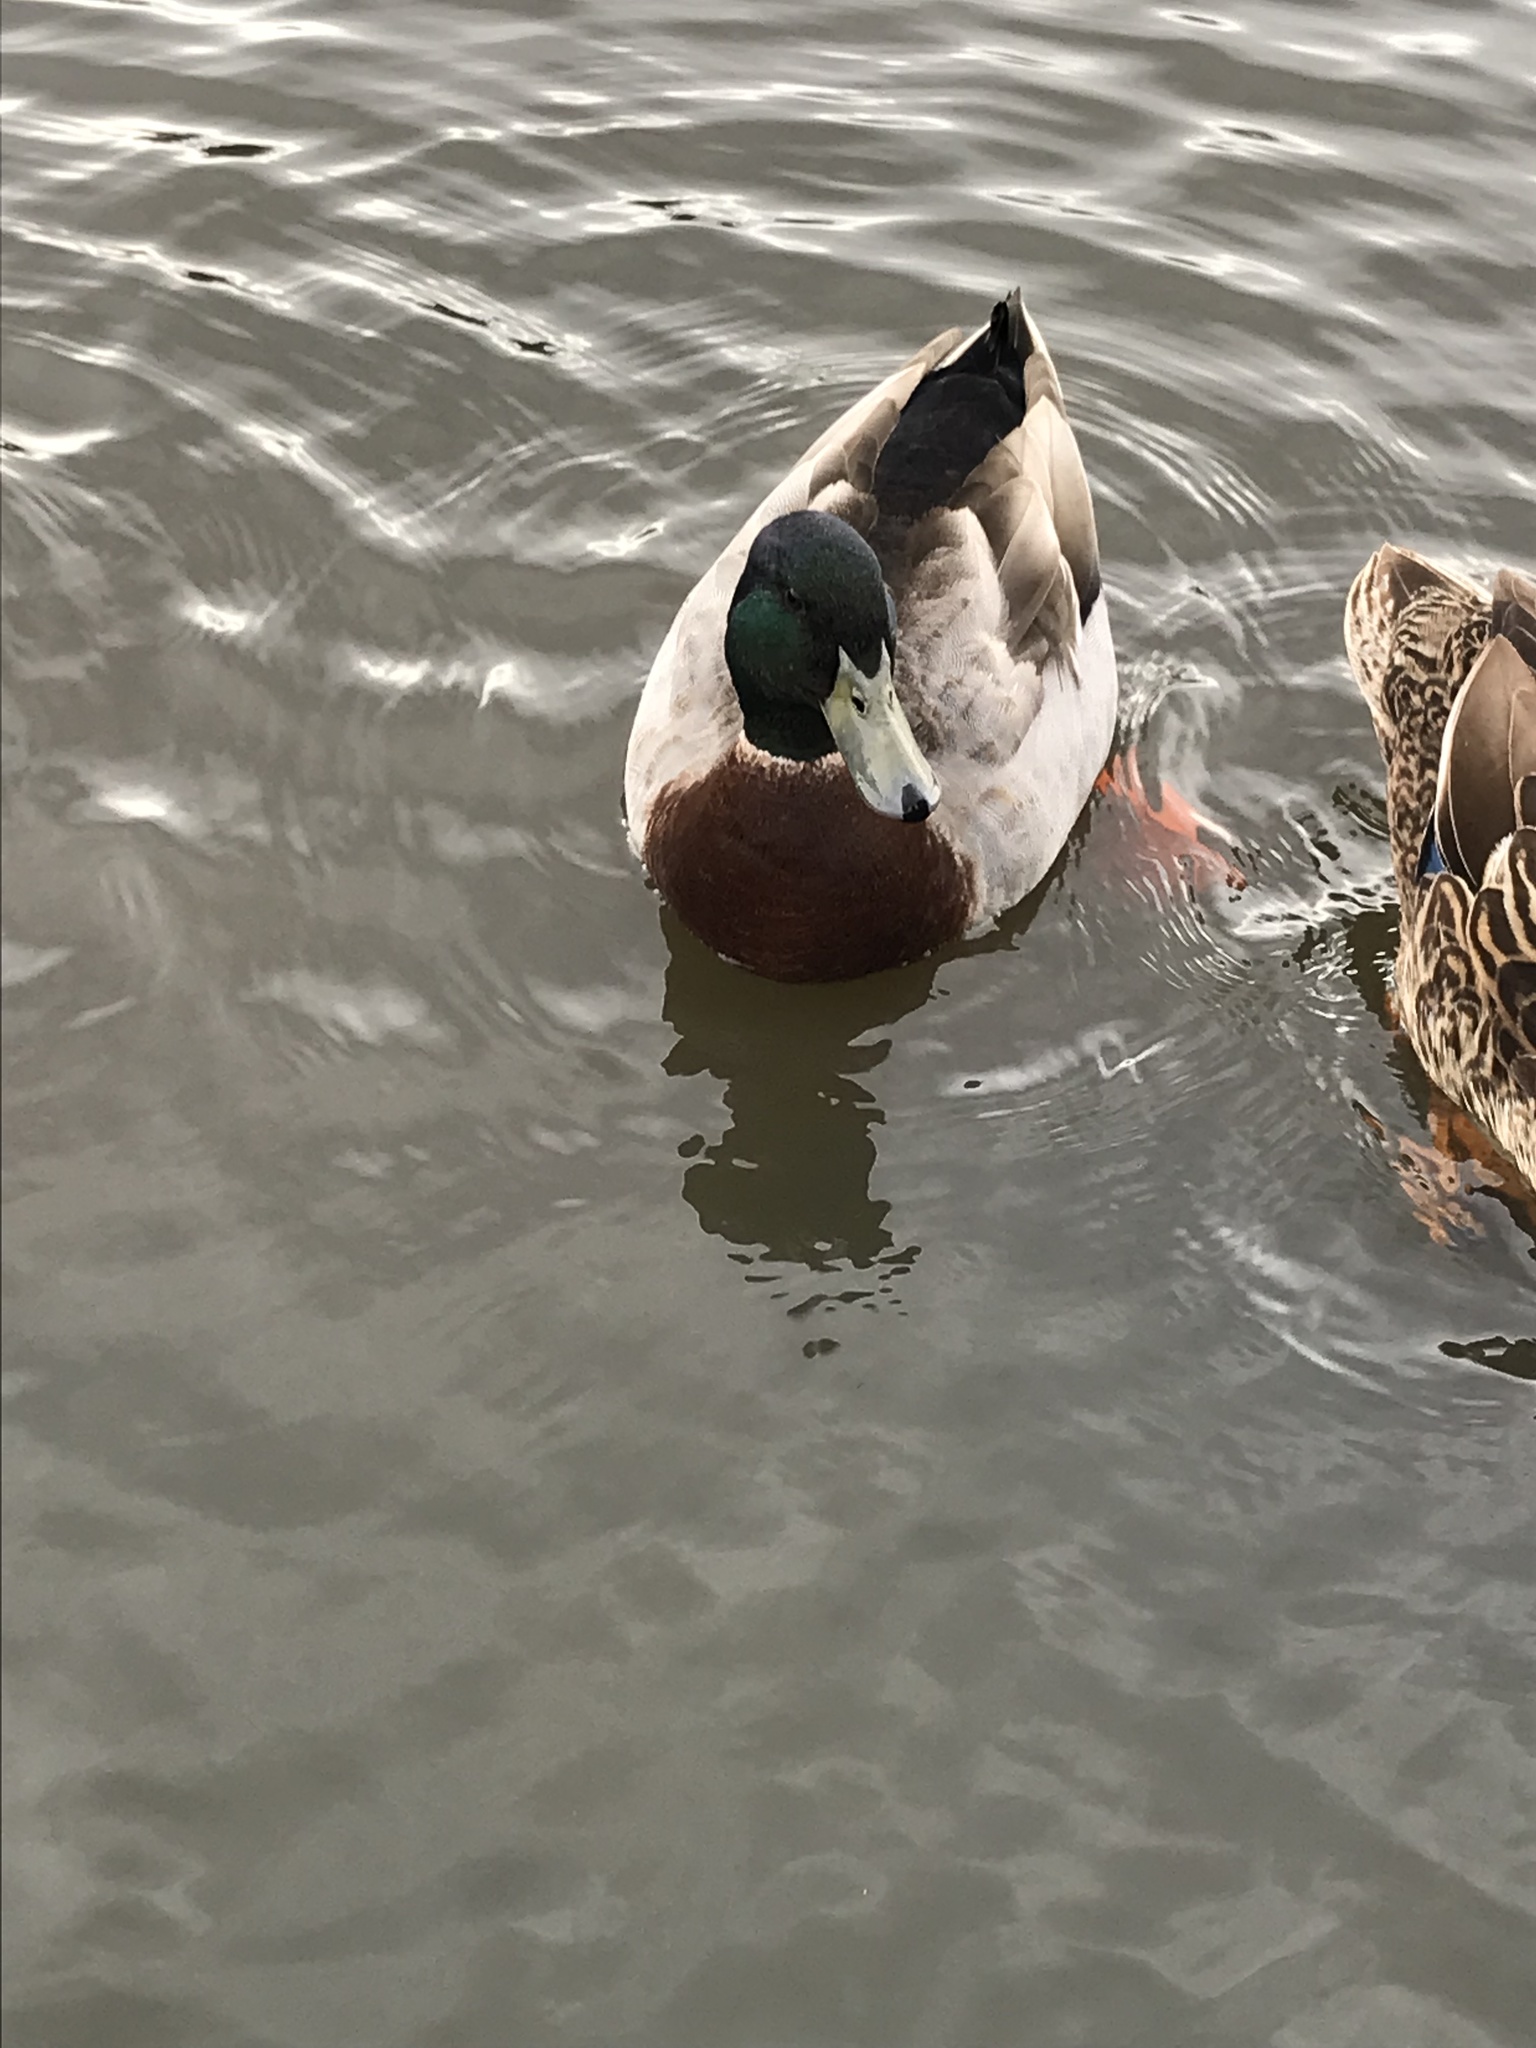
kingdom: Animalia
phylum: Chordata
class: Aves
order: Anseriformes
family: Anatidae
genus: Anas
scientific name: Anas platyrhynchos
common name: Mallard
